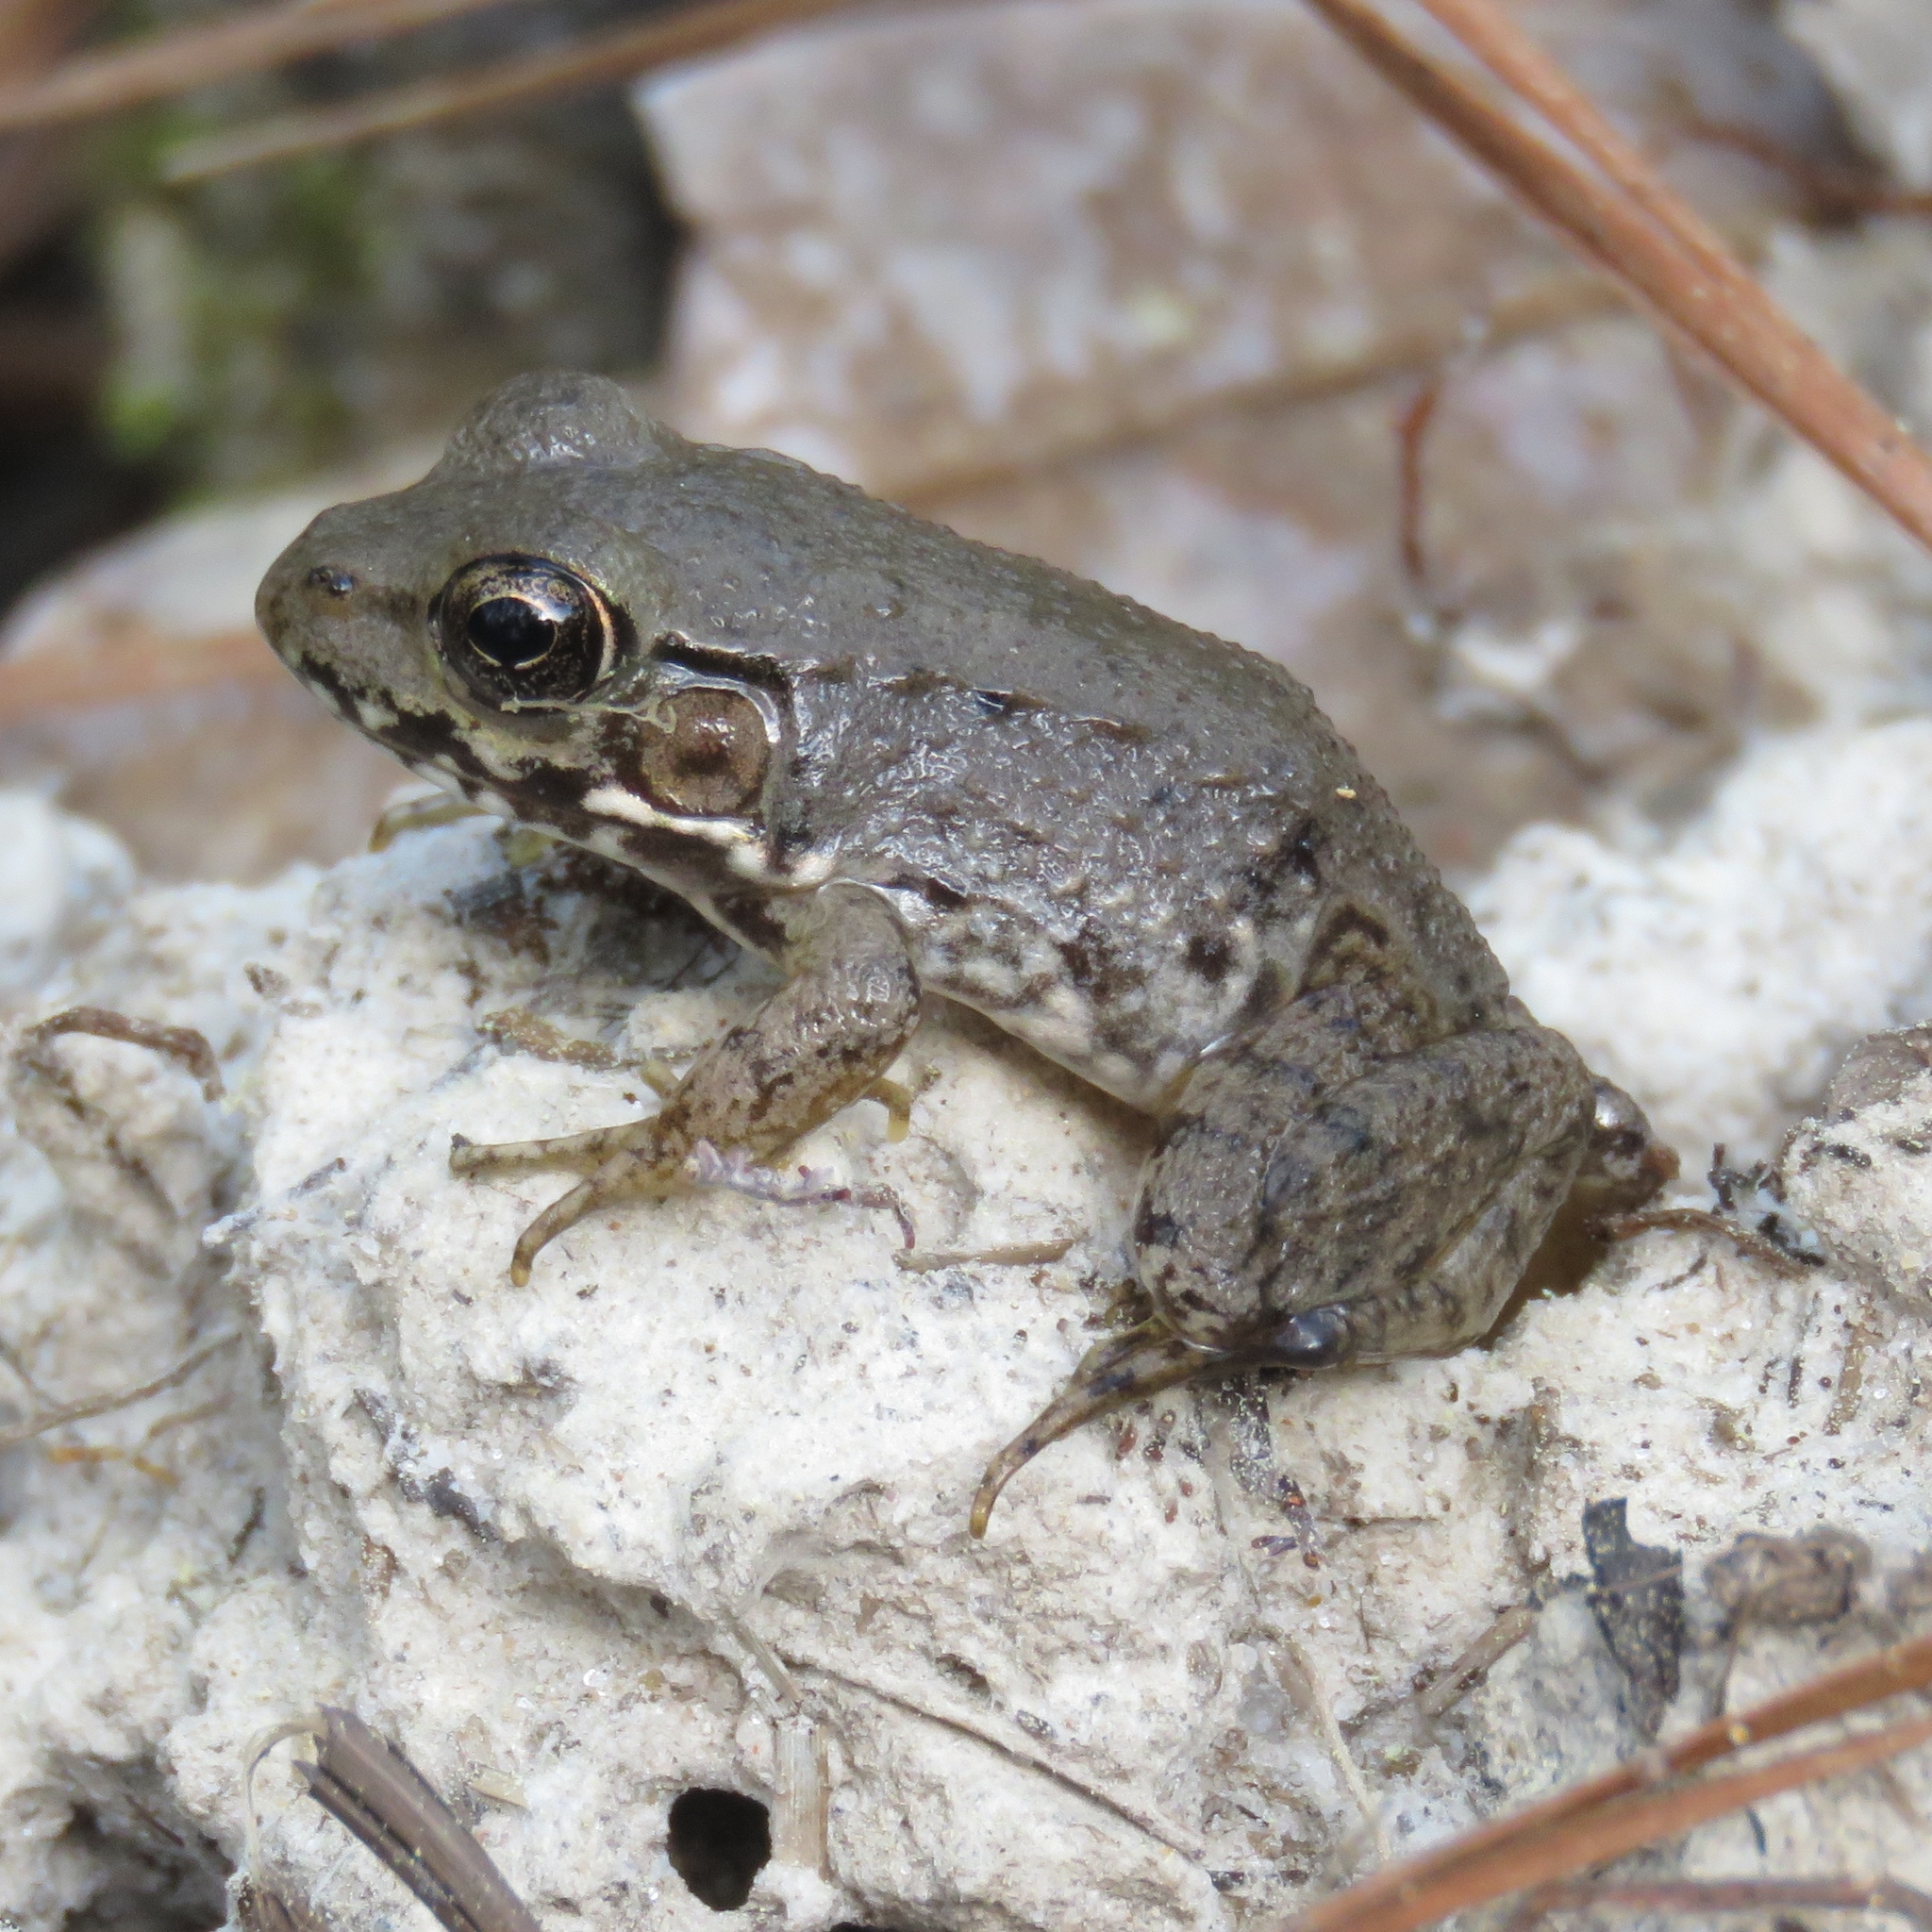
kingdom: Animalia
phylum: Chordata
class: Amphibia
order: Anura
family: Ranidae
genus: Lithobates
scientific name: Lithobates clamitans
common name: Green frog
